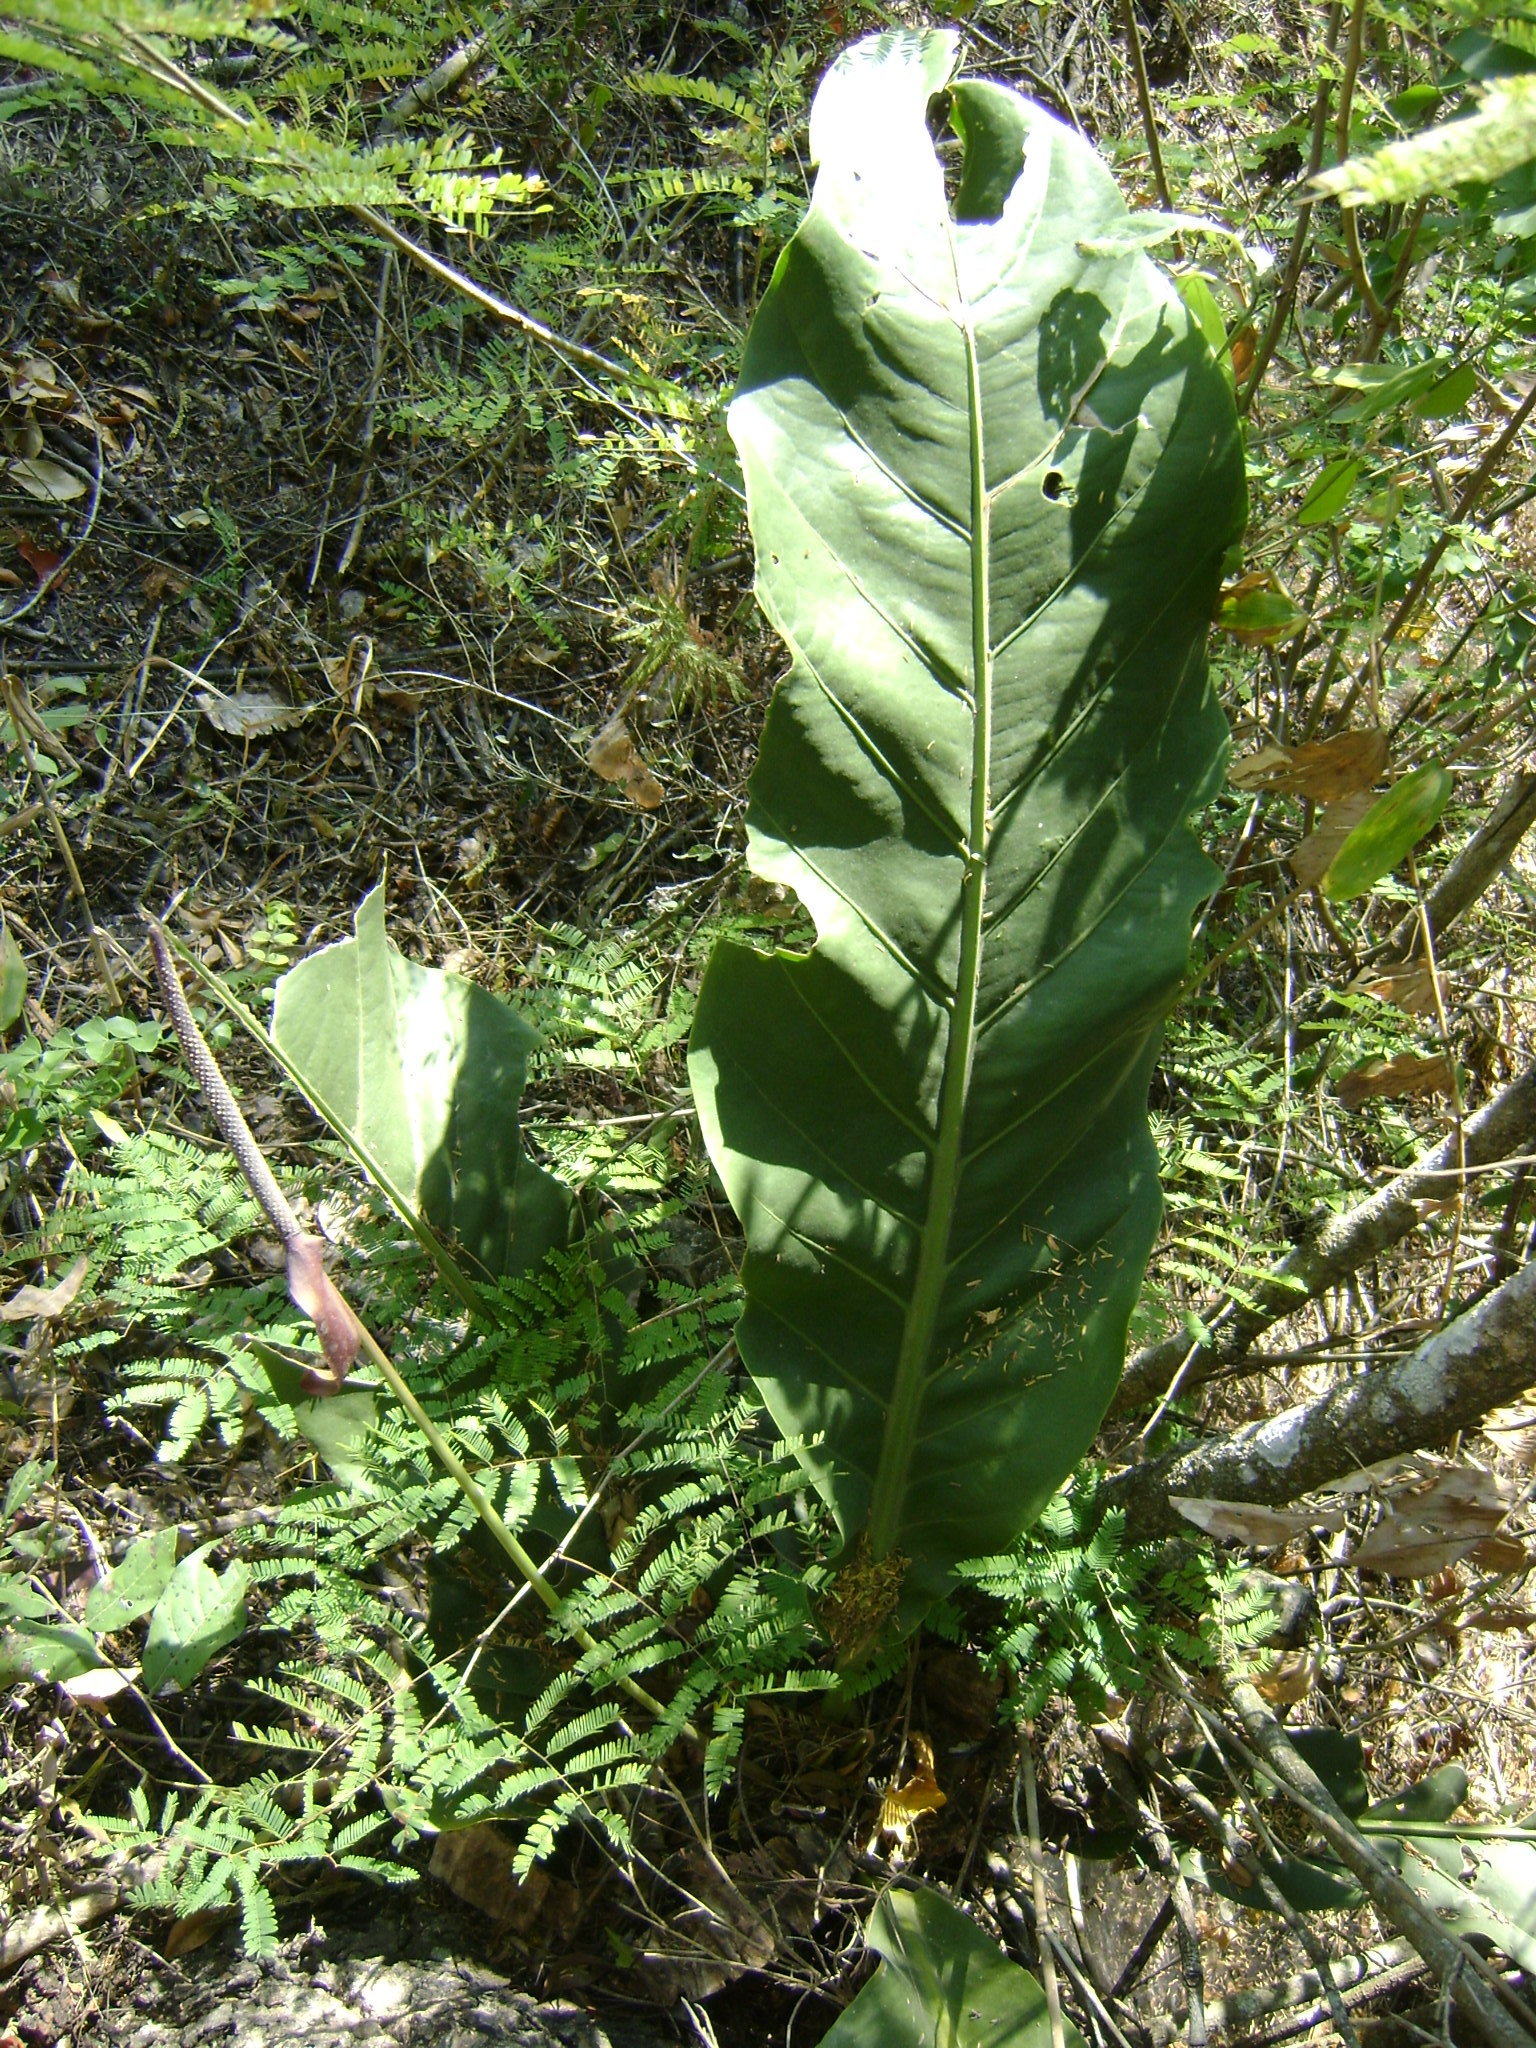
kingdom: Plantae
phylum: Tracheophyta
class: Liliopsida
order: Alismatales
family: Araceae
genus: Anthurium
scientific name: Anthurium schlechtendalii
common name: Laceleaf
